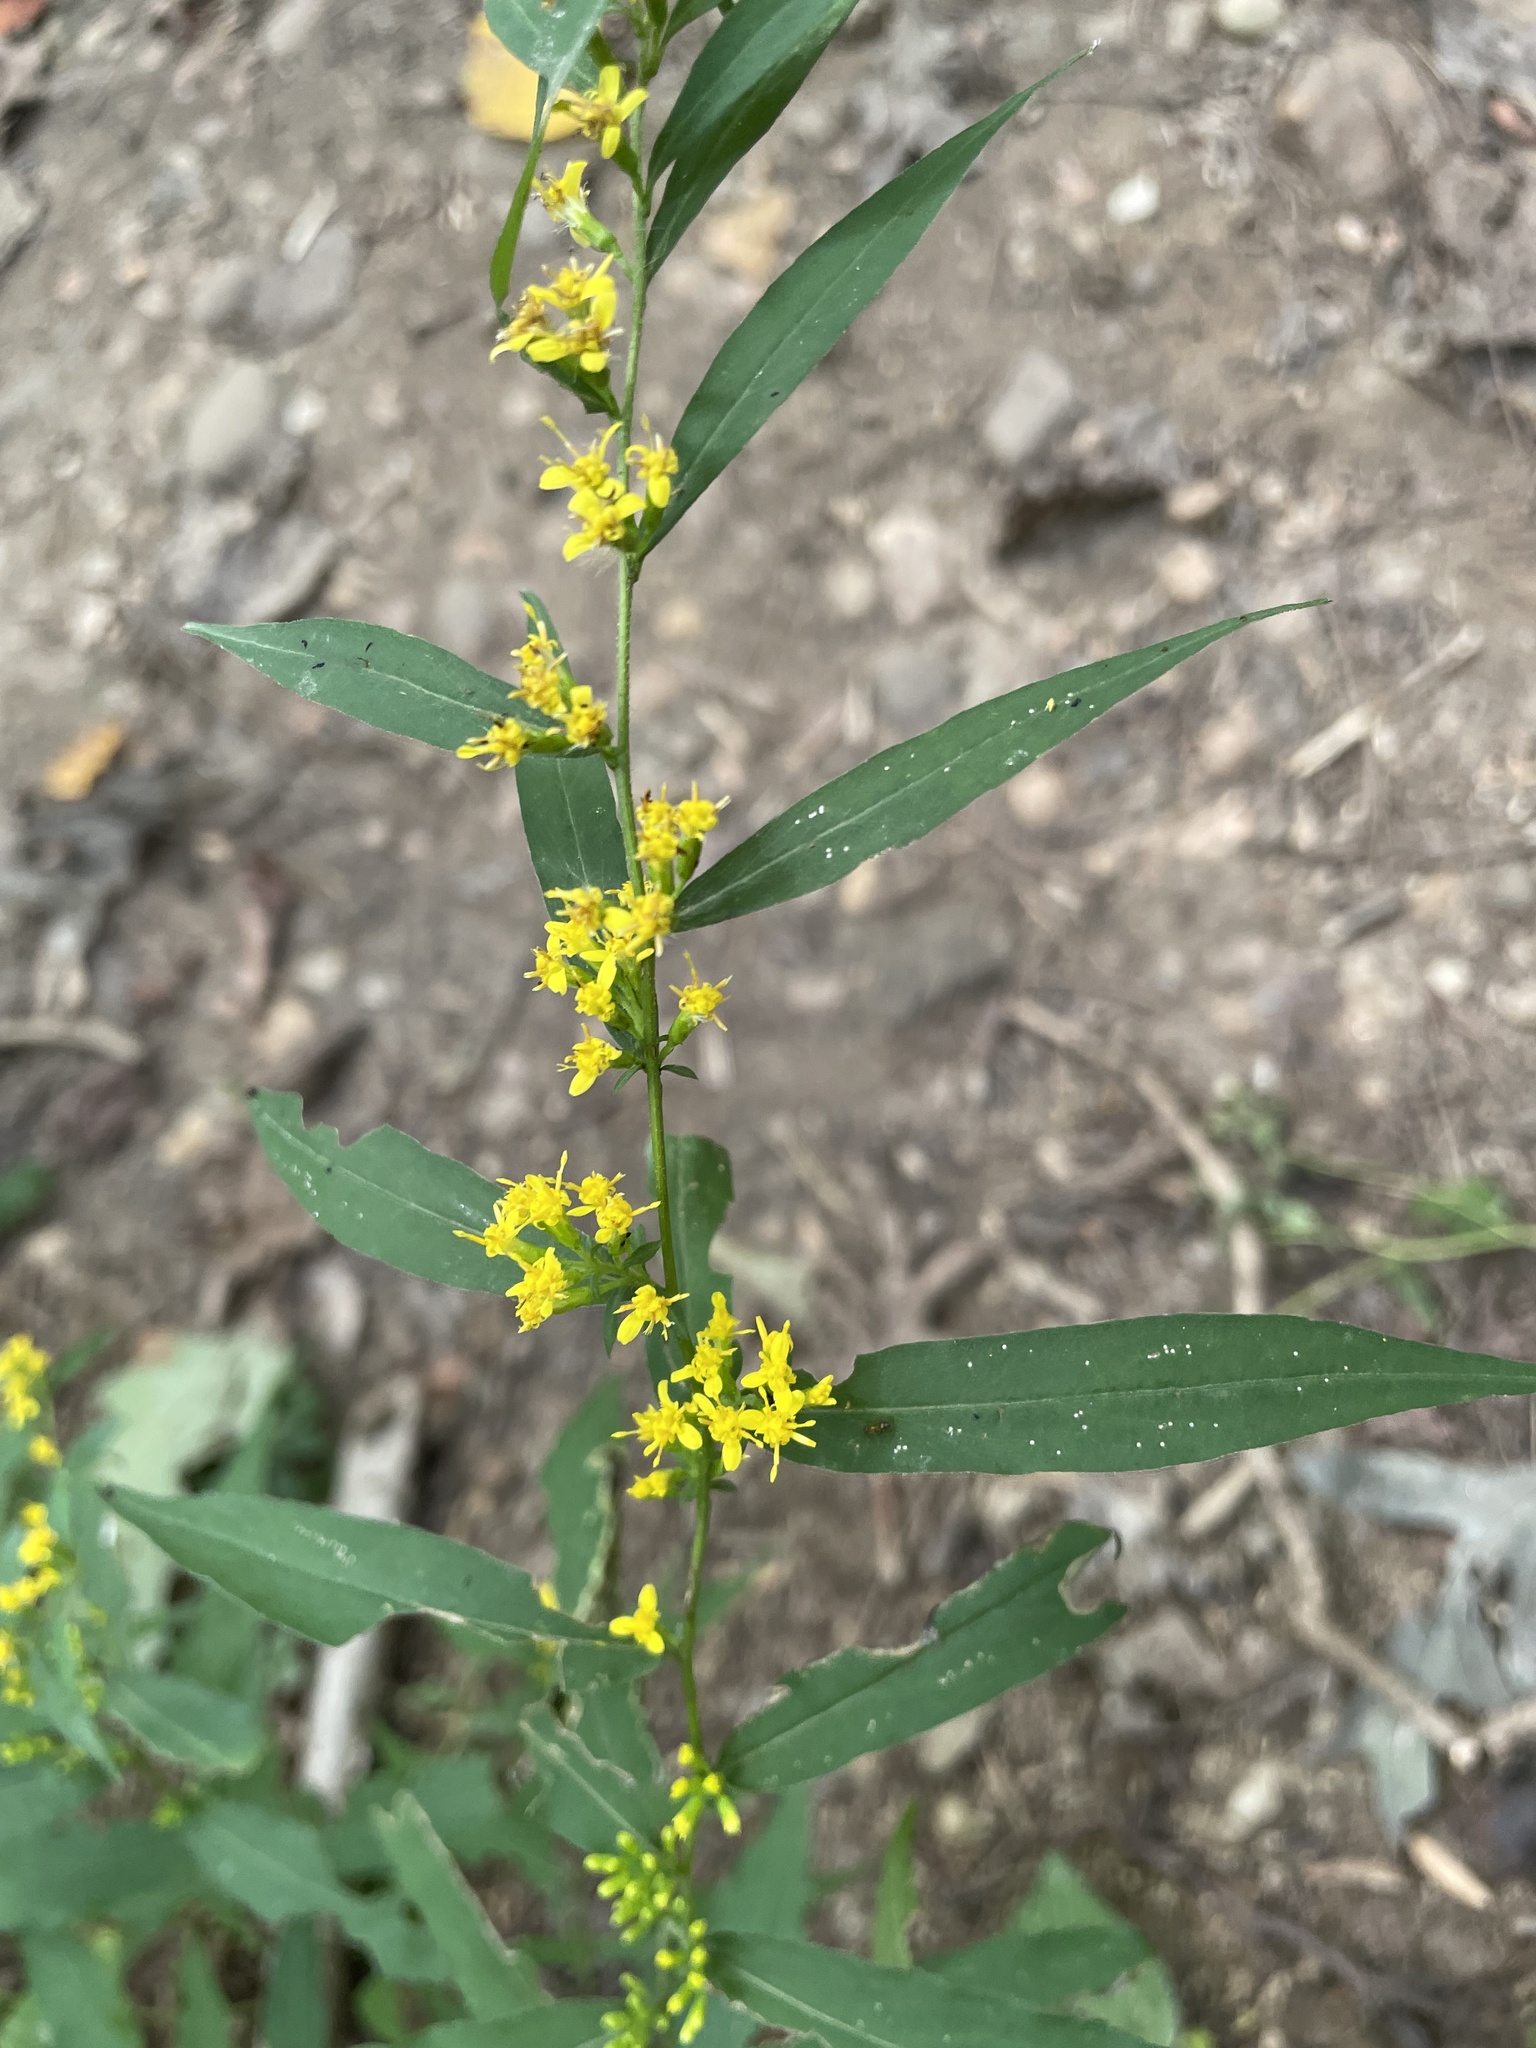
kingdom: Plantae
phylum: Tracheophyta
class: Magnoliopsida
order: Asterales
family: Asteraceae
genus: Solidago
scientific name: Solidago caesia
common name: Woodland goldenrod
